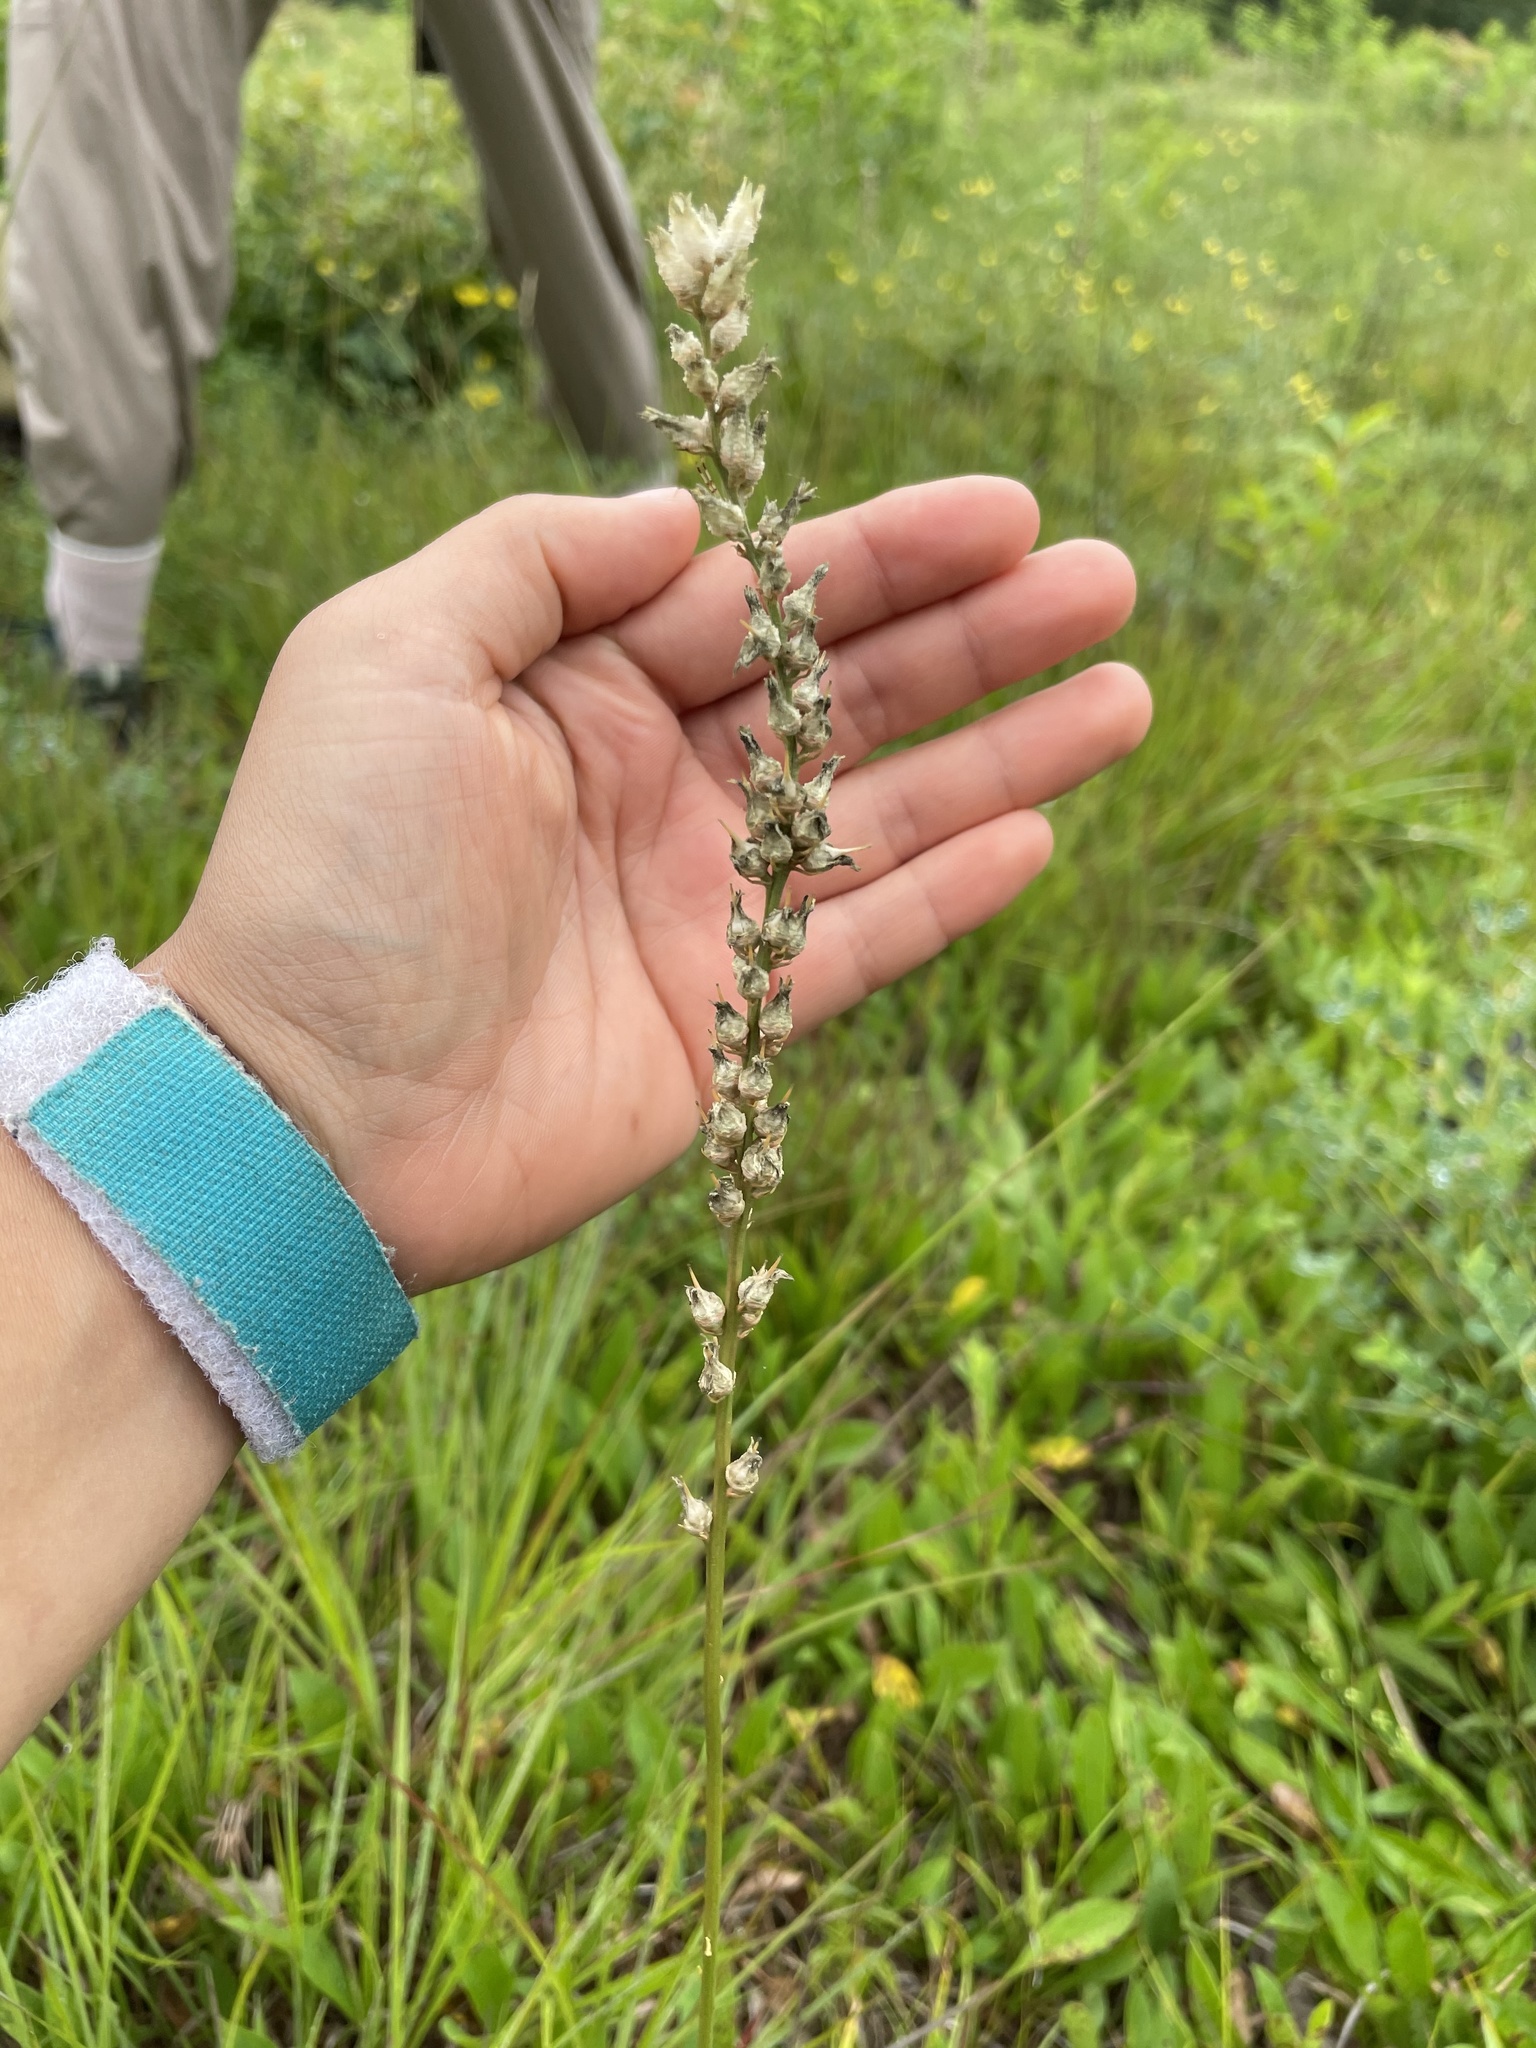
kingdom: Plantae
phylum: Tracheophyta
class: Liliopsida
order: Dioscoreales
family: Nartheciaceae
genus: Aletris
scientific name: Aletris farinosa
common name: Colicroot
